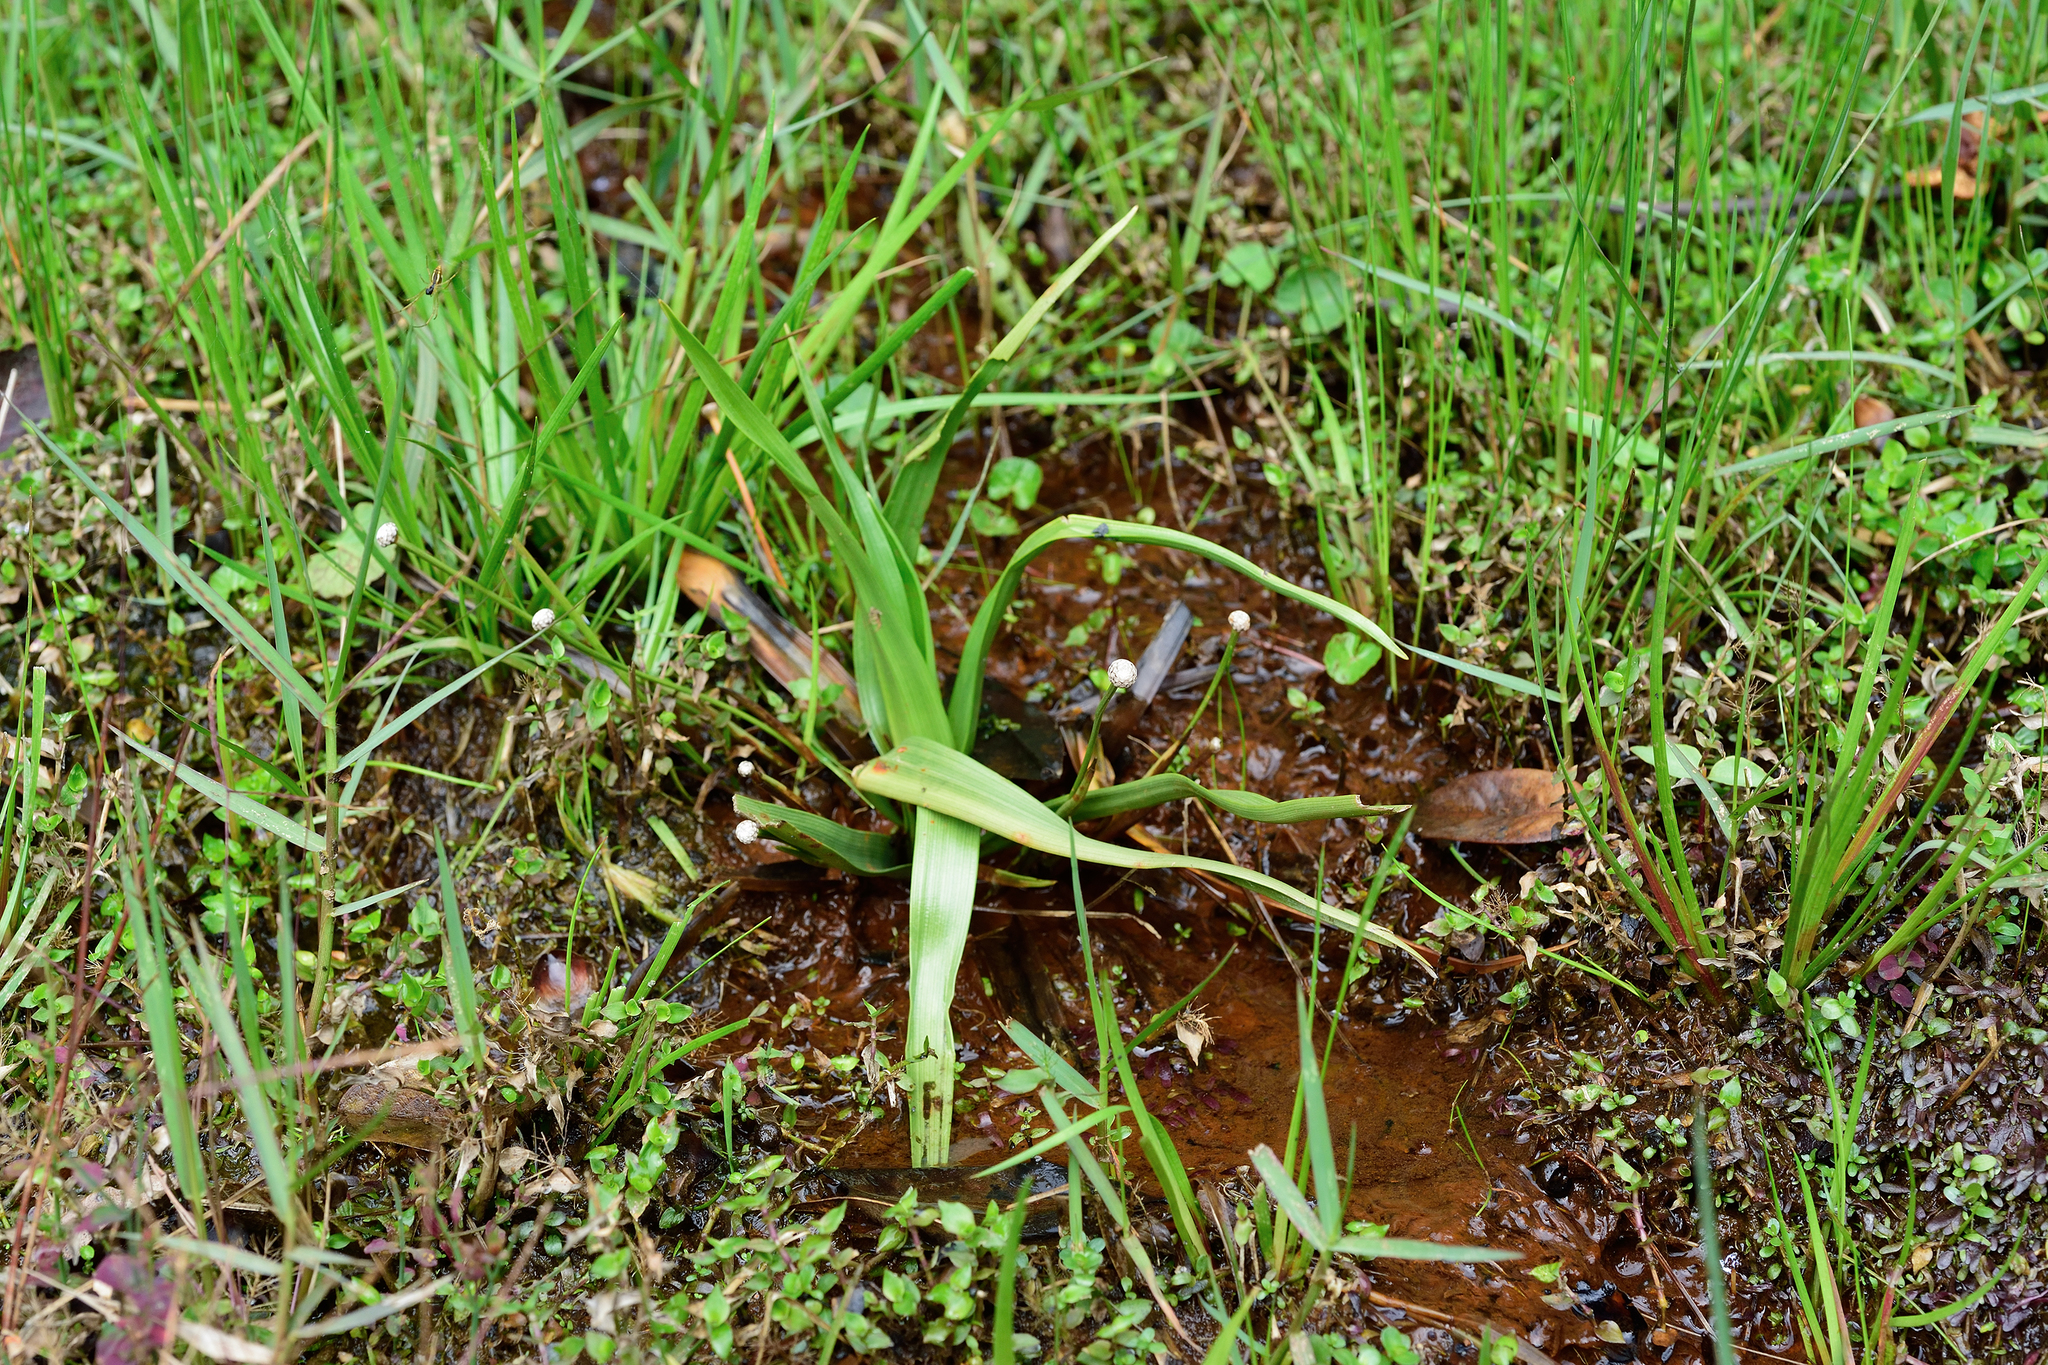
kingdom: Plantae
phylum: Tracheophyta
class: Liliopsida
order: Poales
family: Eriocaulaceae
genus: Eriocaulon
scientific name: Eriocaulon sexangulare
